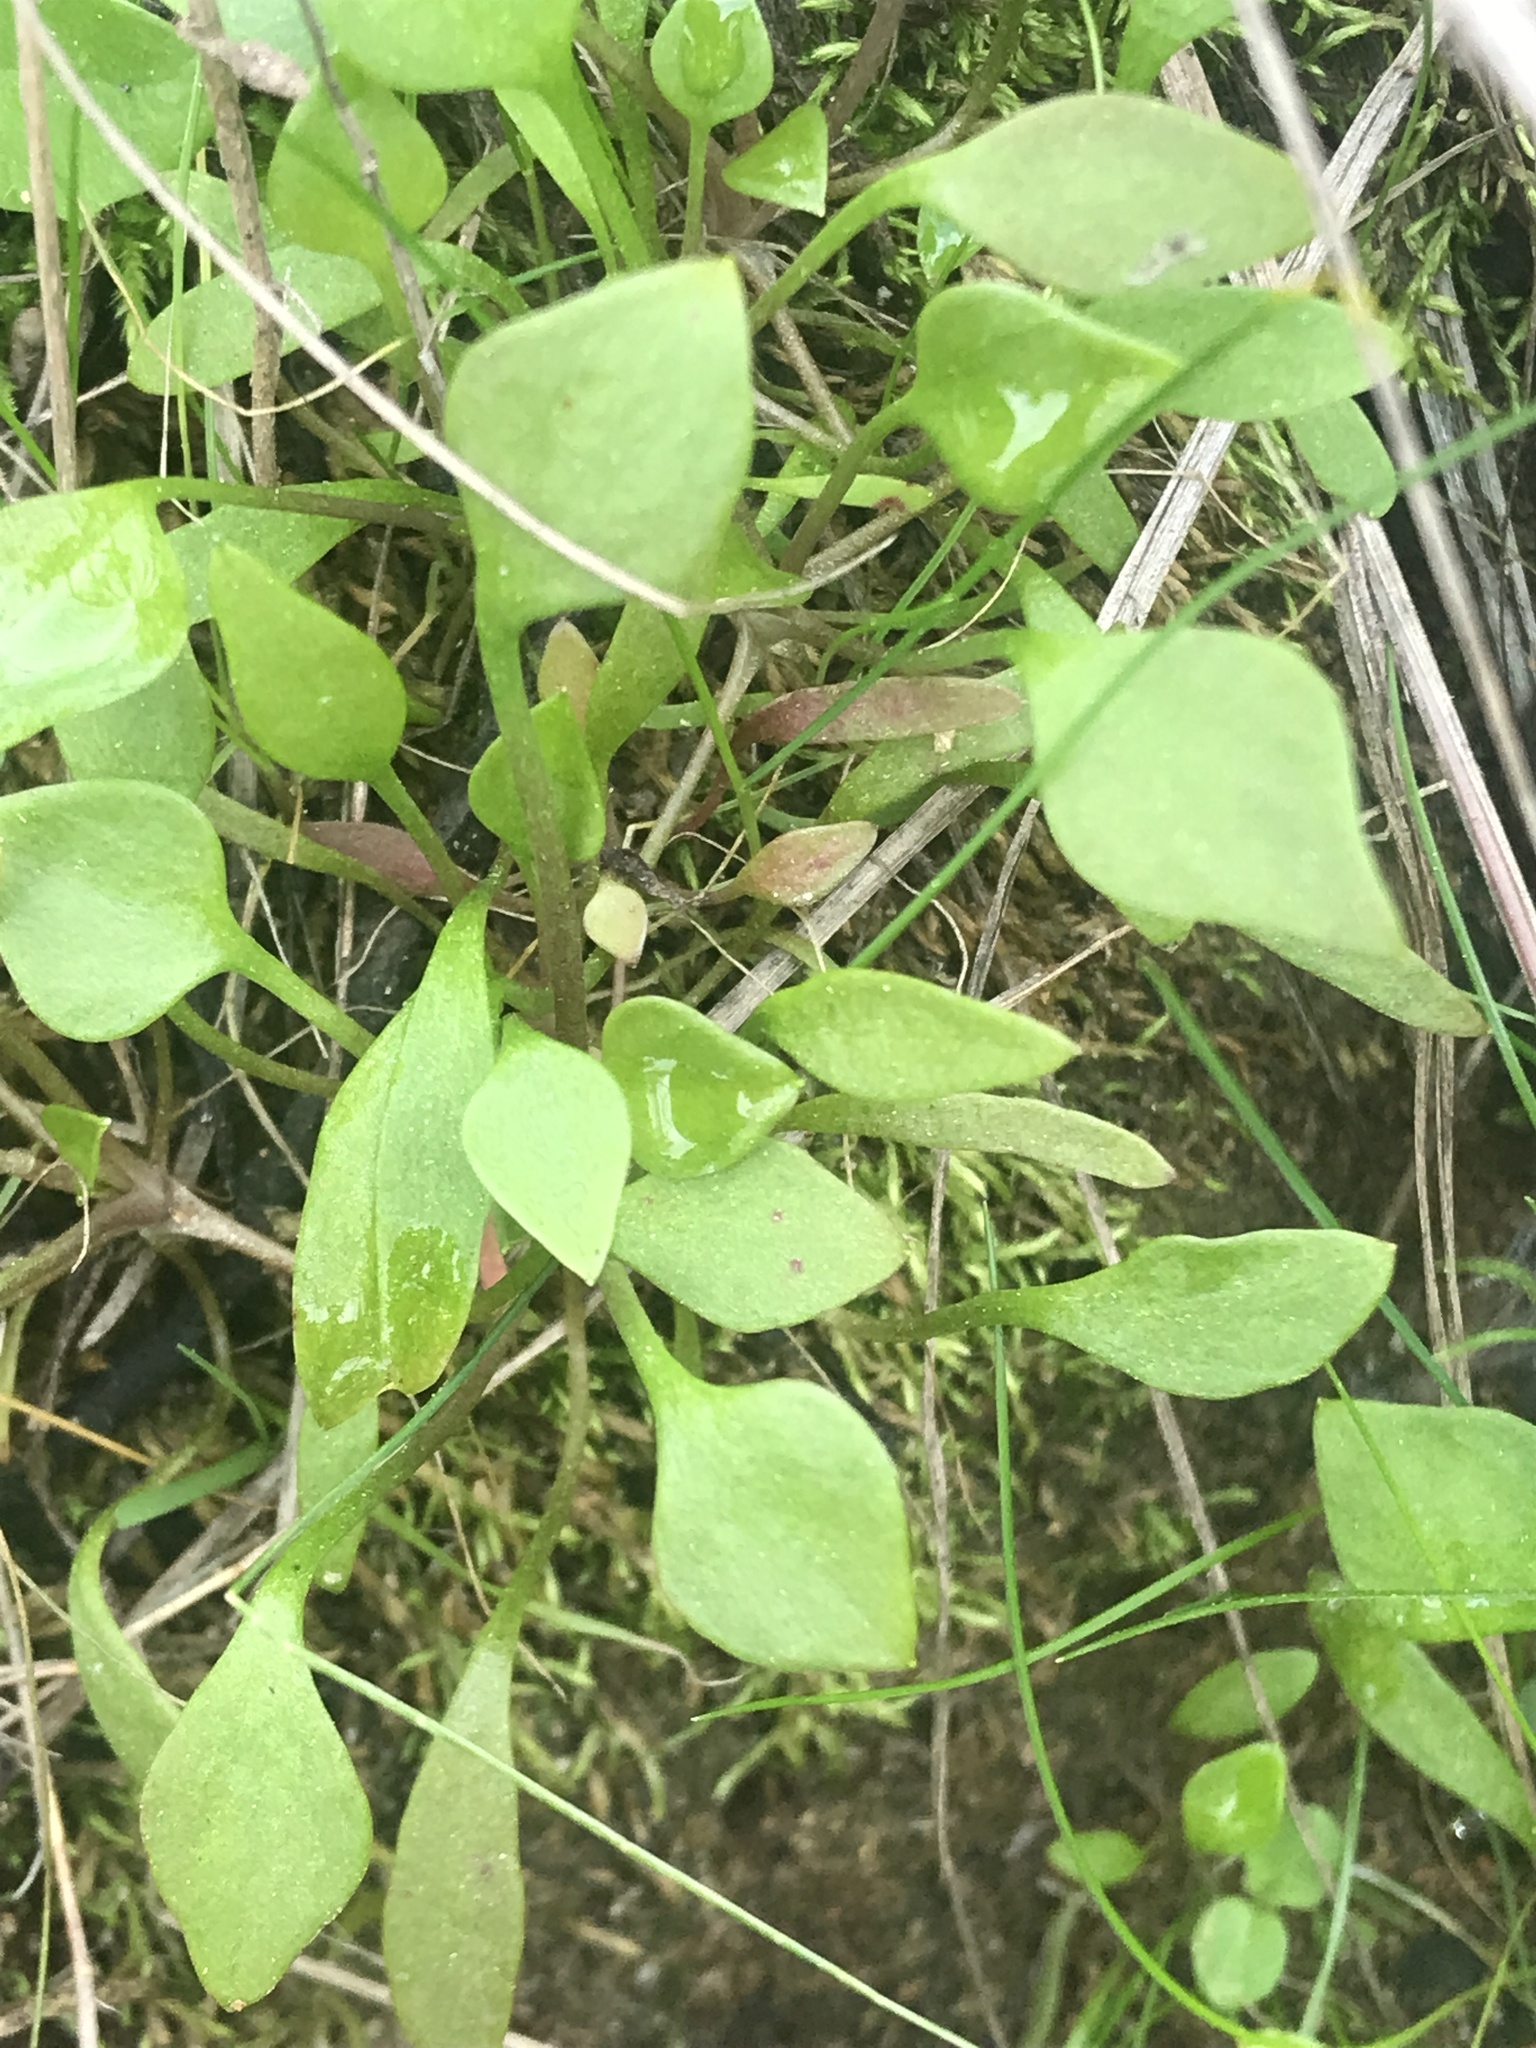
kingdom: Plantae
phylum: Tracheophyta
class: Magnoliopsida
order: Caryophyllales
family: Montiaceae
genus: Claytonia
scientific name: Claytonia perfoliata
